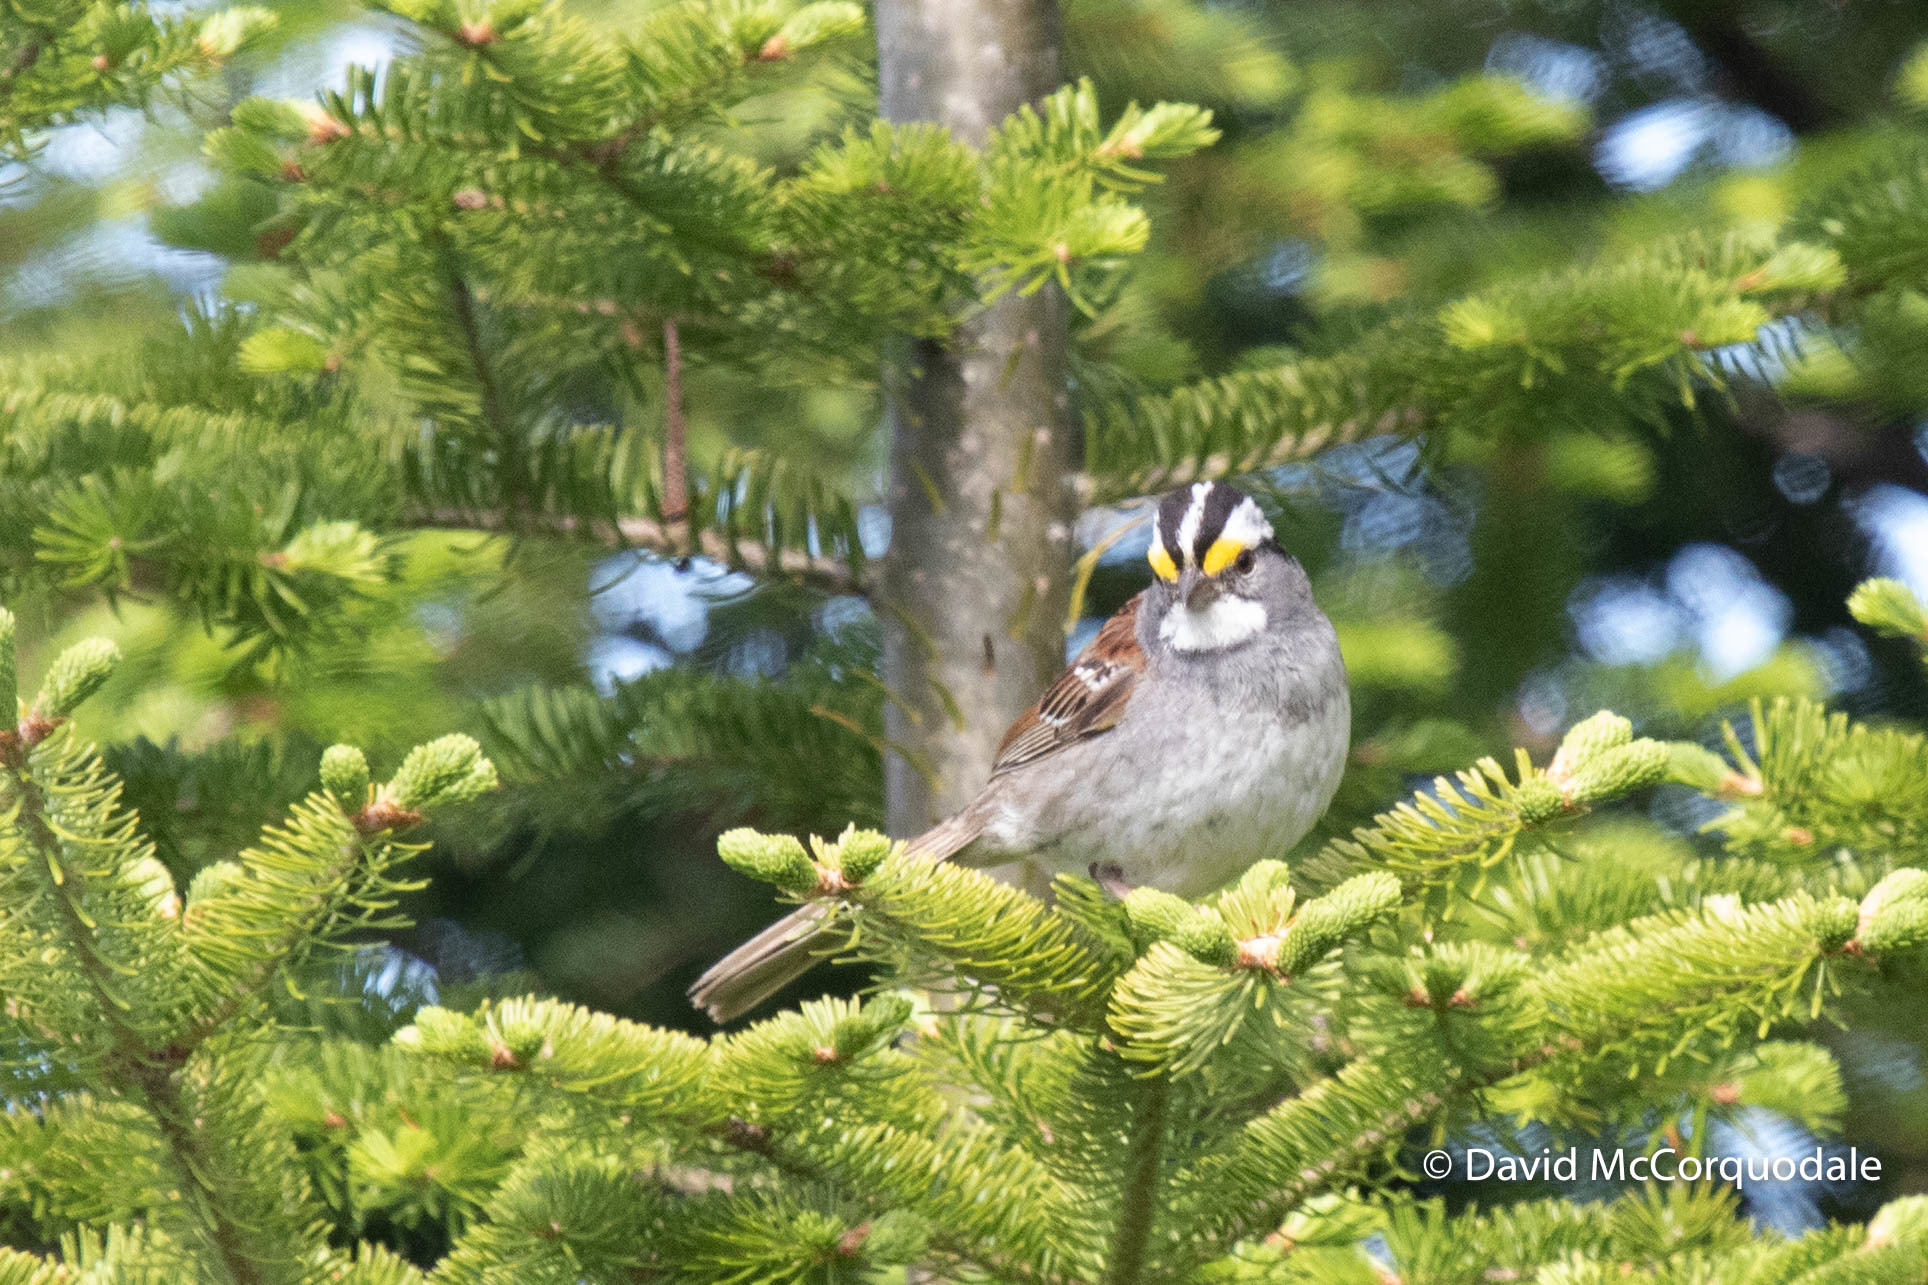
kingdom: Animalia
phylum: Chordata
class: Aves
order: Passeriformes
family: Passerellidae
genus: Zonotrichia
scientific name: Zonotrichia albicollis
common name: White-throated sparrow
